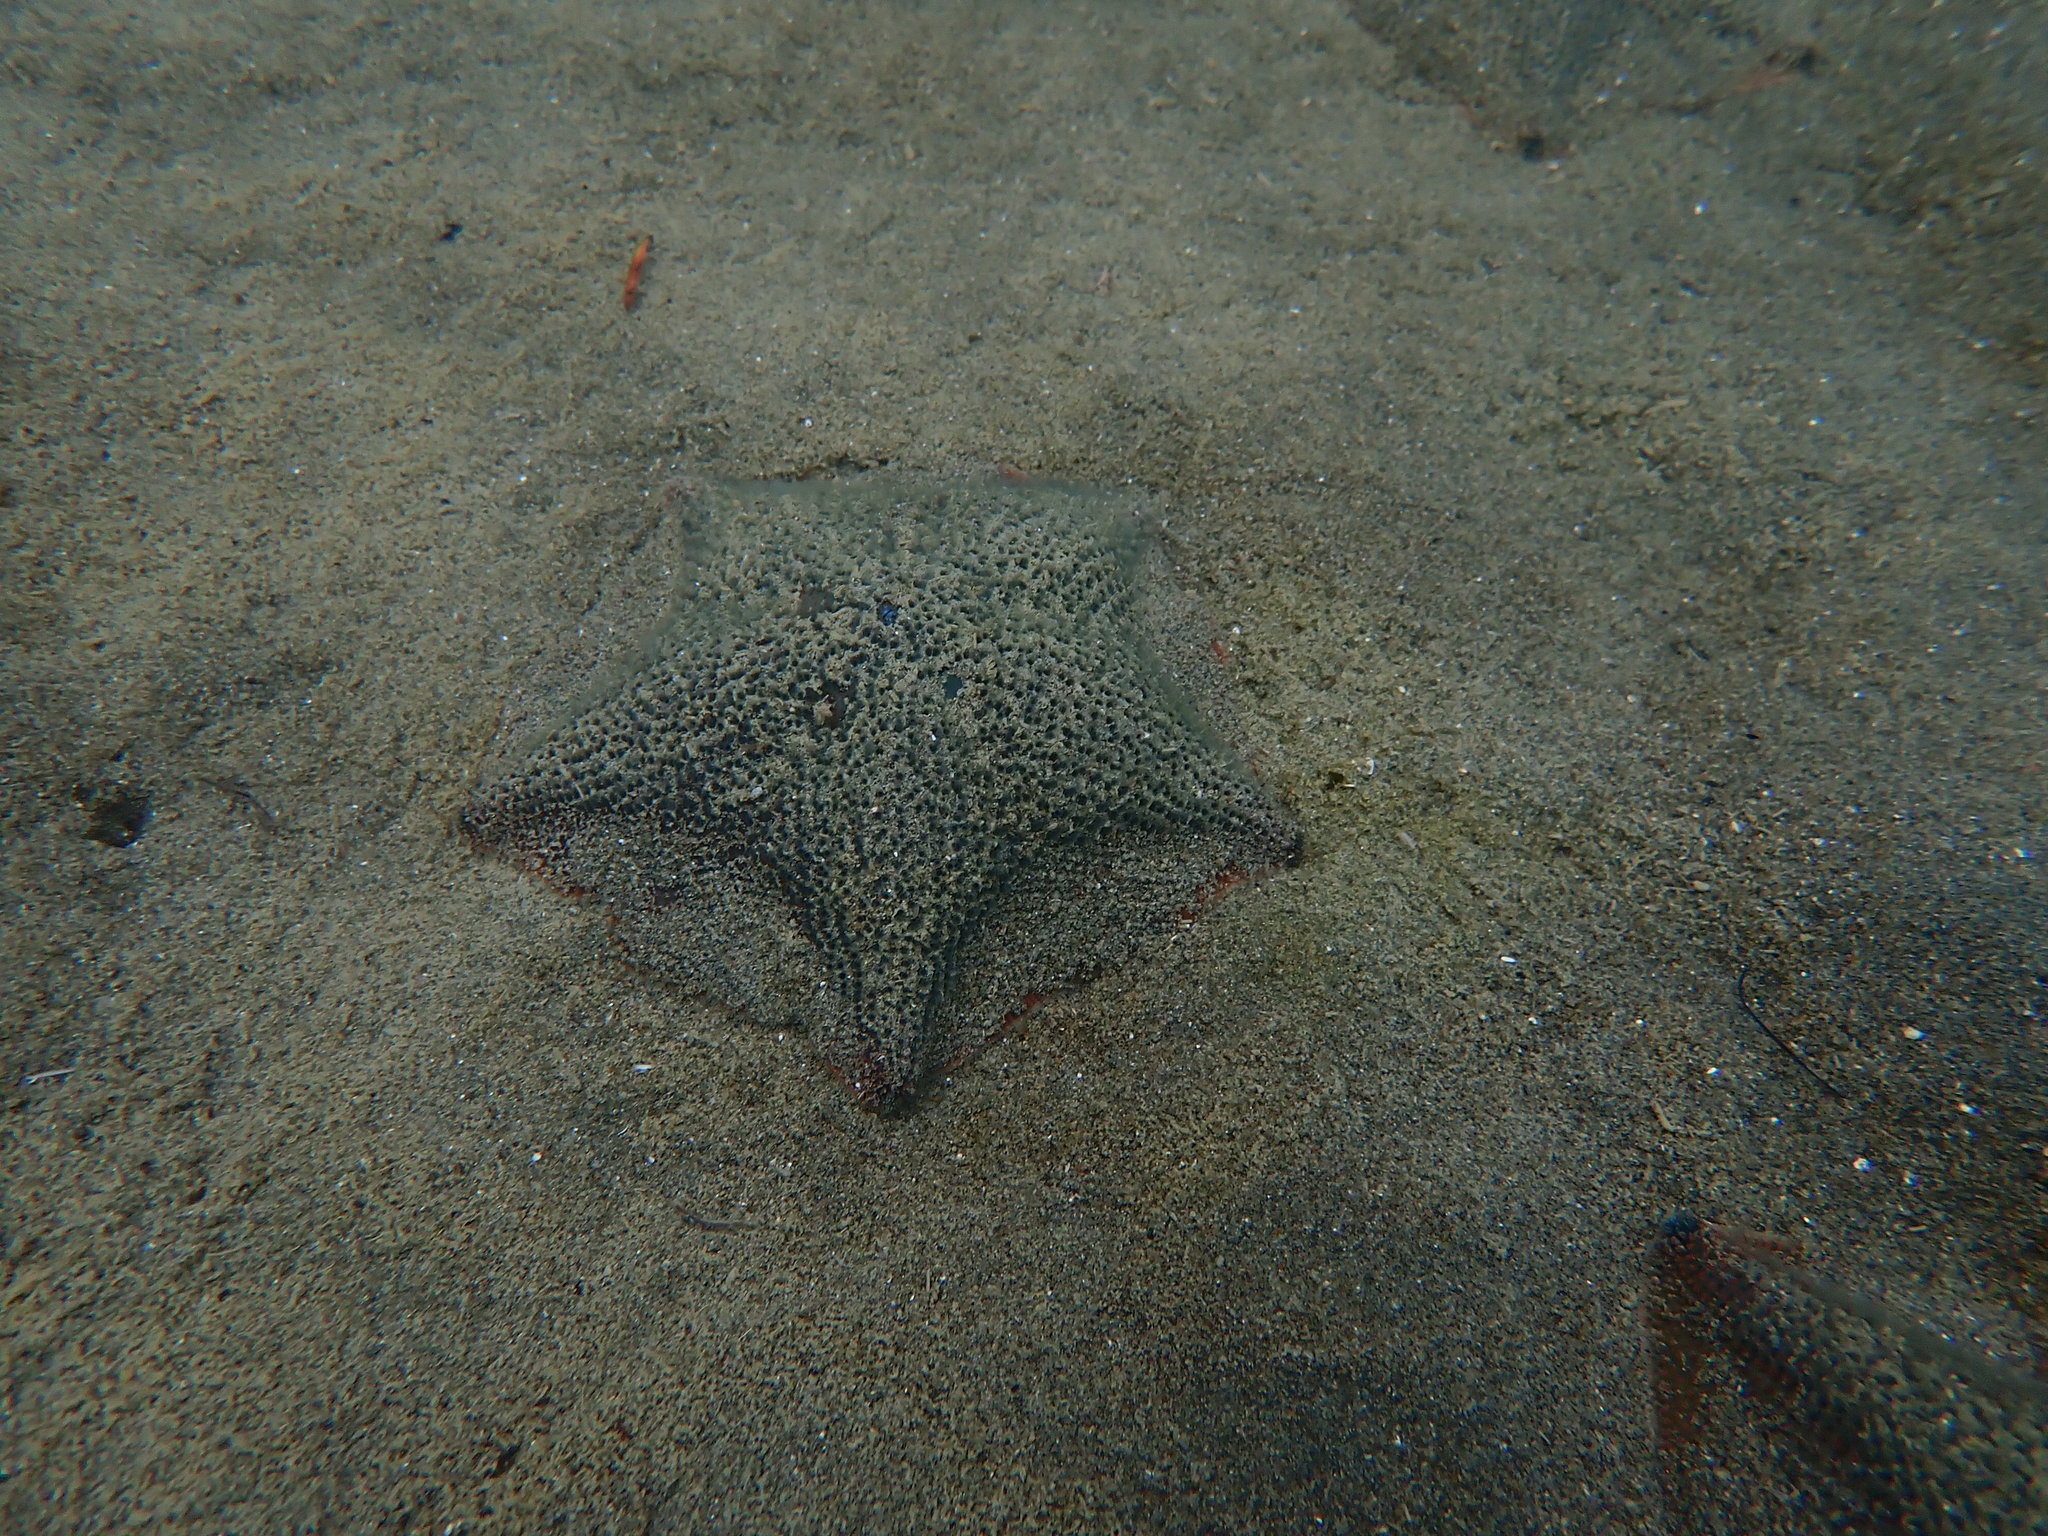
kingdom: Animalia
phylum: Echinodermata
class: Asteroidea
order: Valvatida
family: Asterinidae
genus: Patiriella
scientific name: Patiriella regularis
